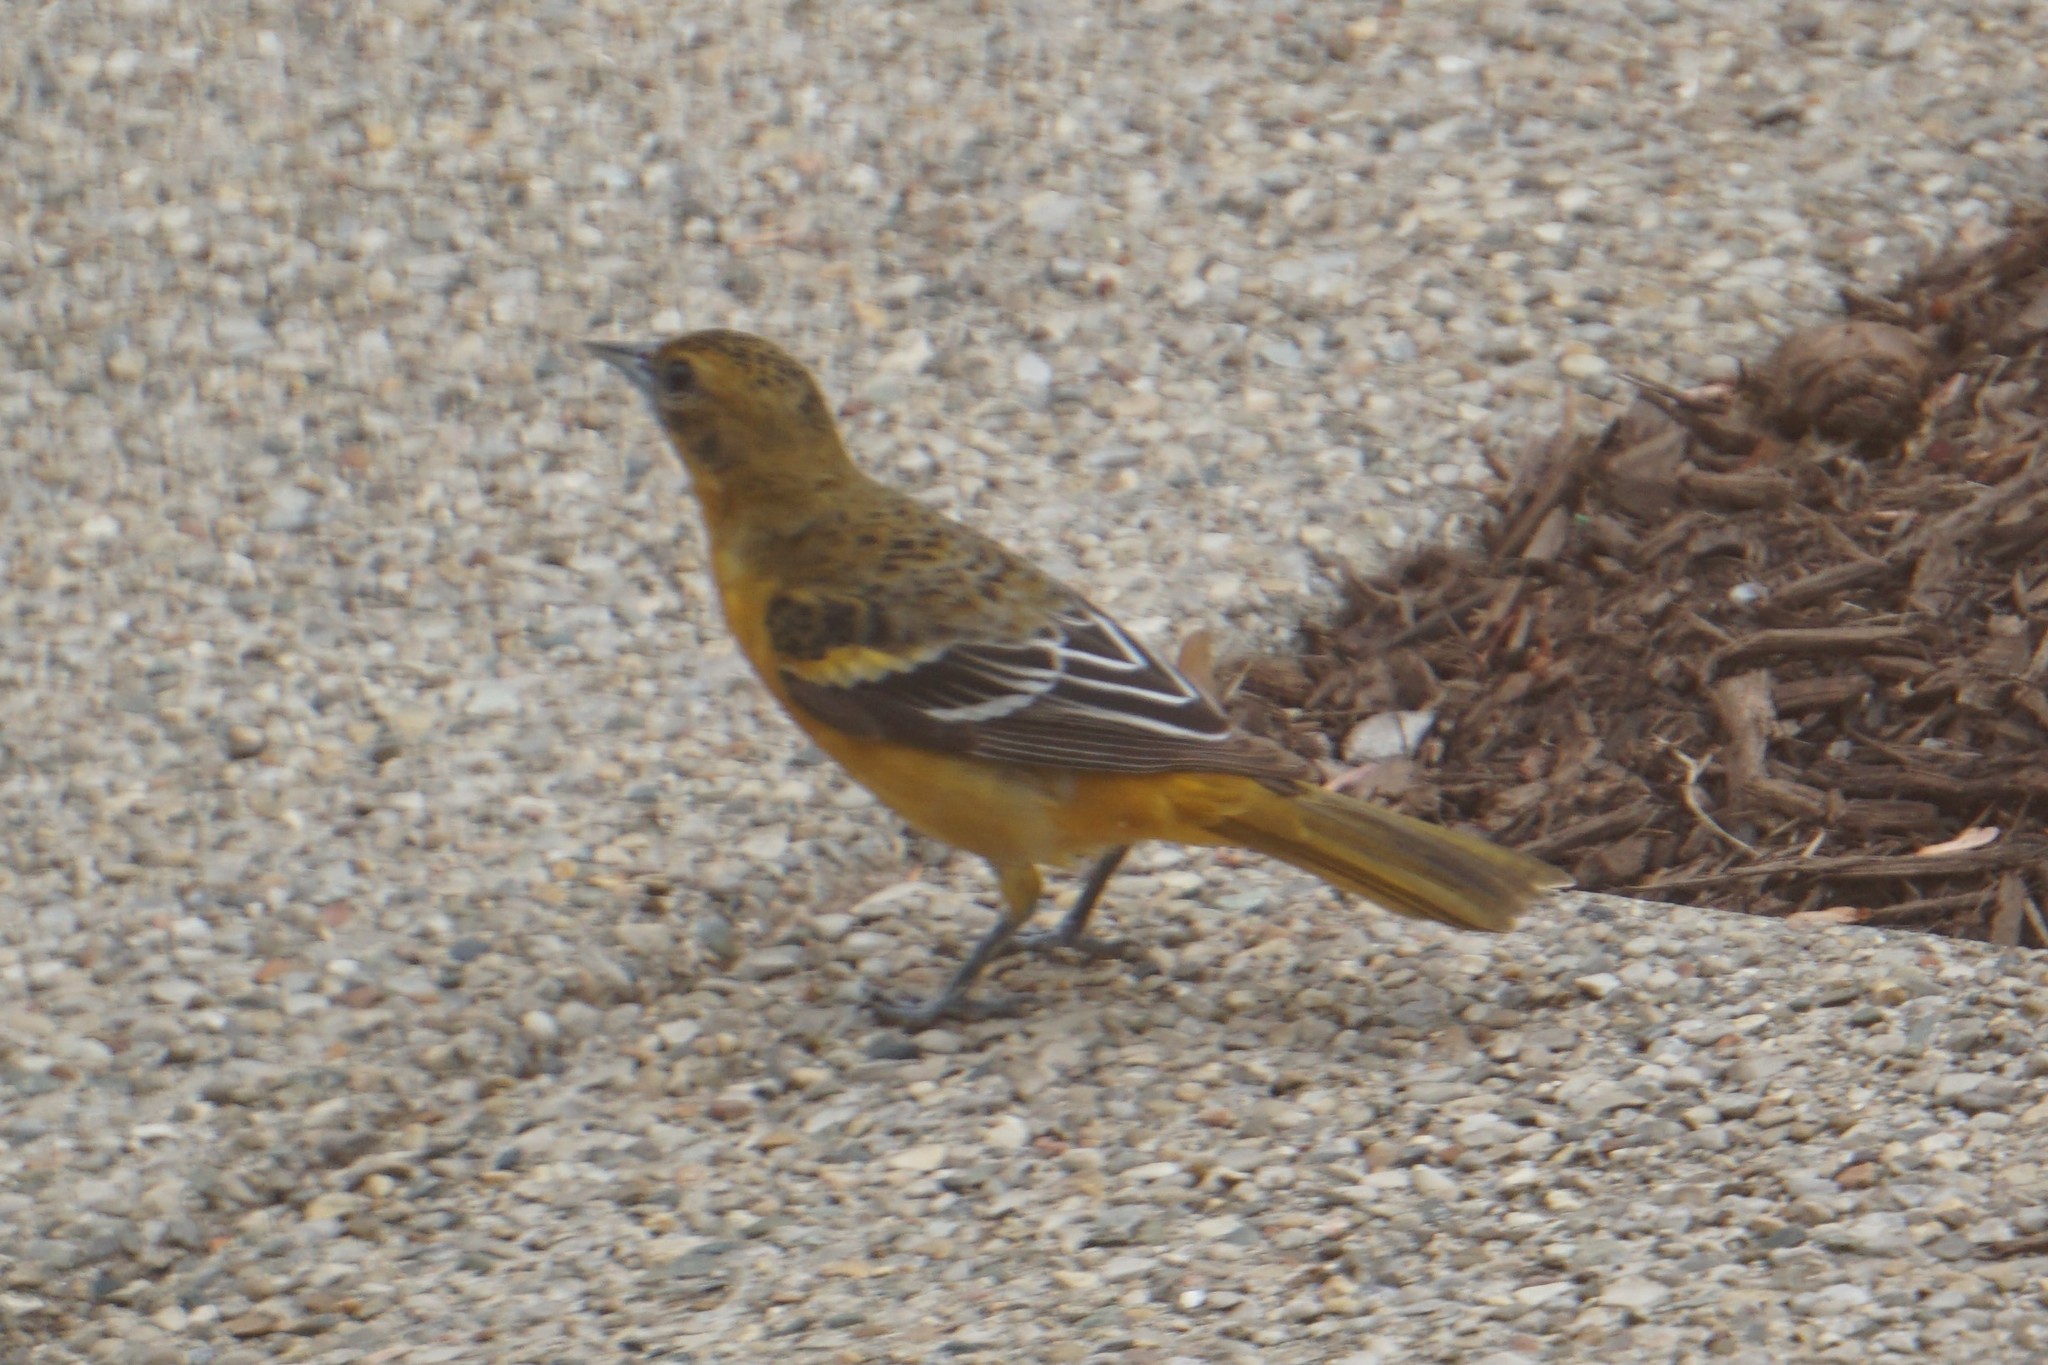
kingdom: Animalia
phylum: Chordata
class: Aves
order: Passeriformes
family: Icteridae
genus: Icterus
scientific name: Icterus galbula
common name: Baltimore oriole
